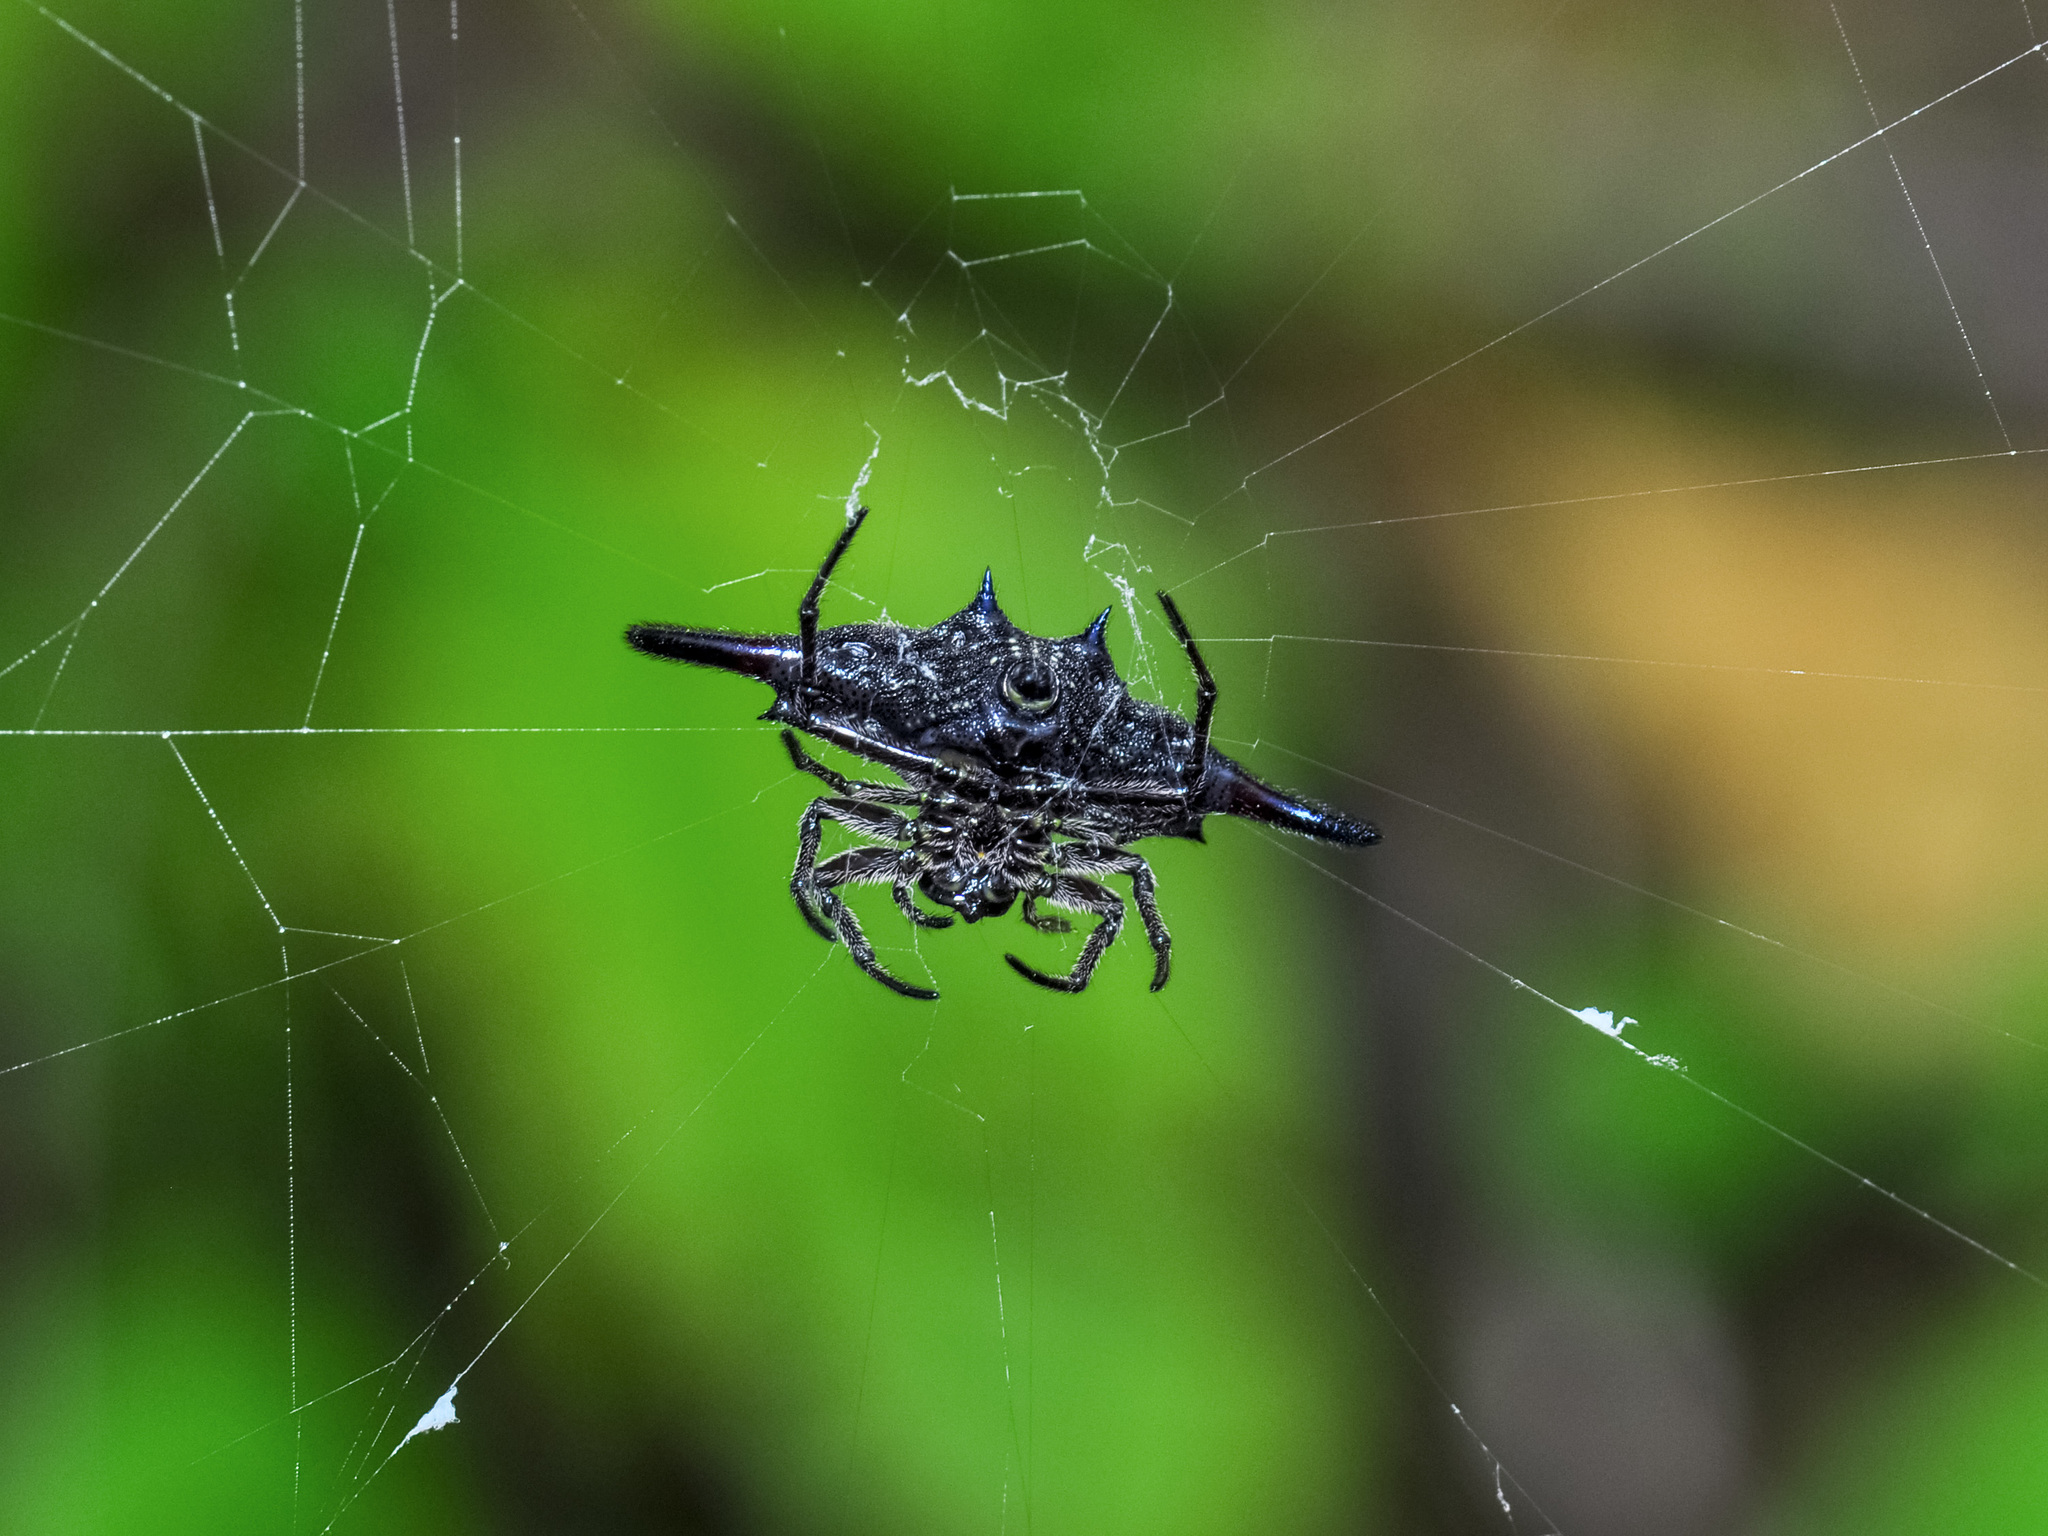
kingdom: Animalia
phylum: Arthropoda
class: Arachnida
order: Araneae
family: Araneidae
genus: Gasteracantha
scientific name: Gasteracantha diardi
